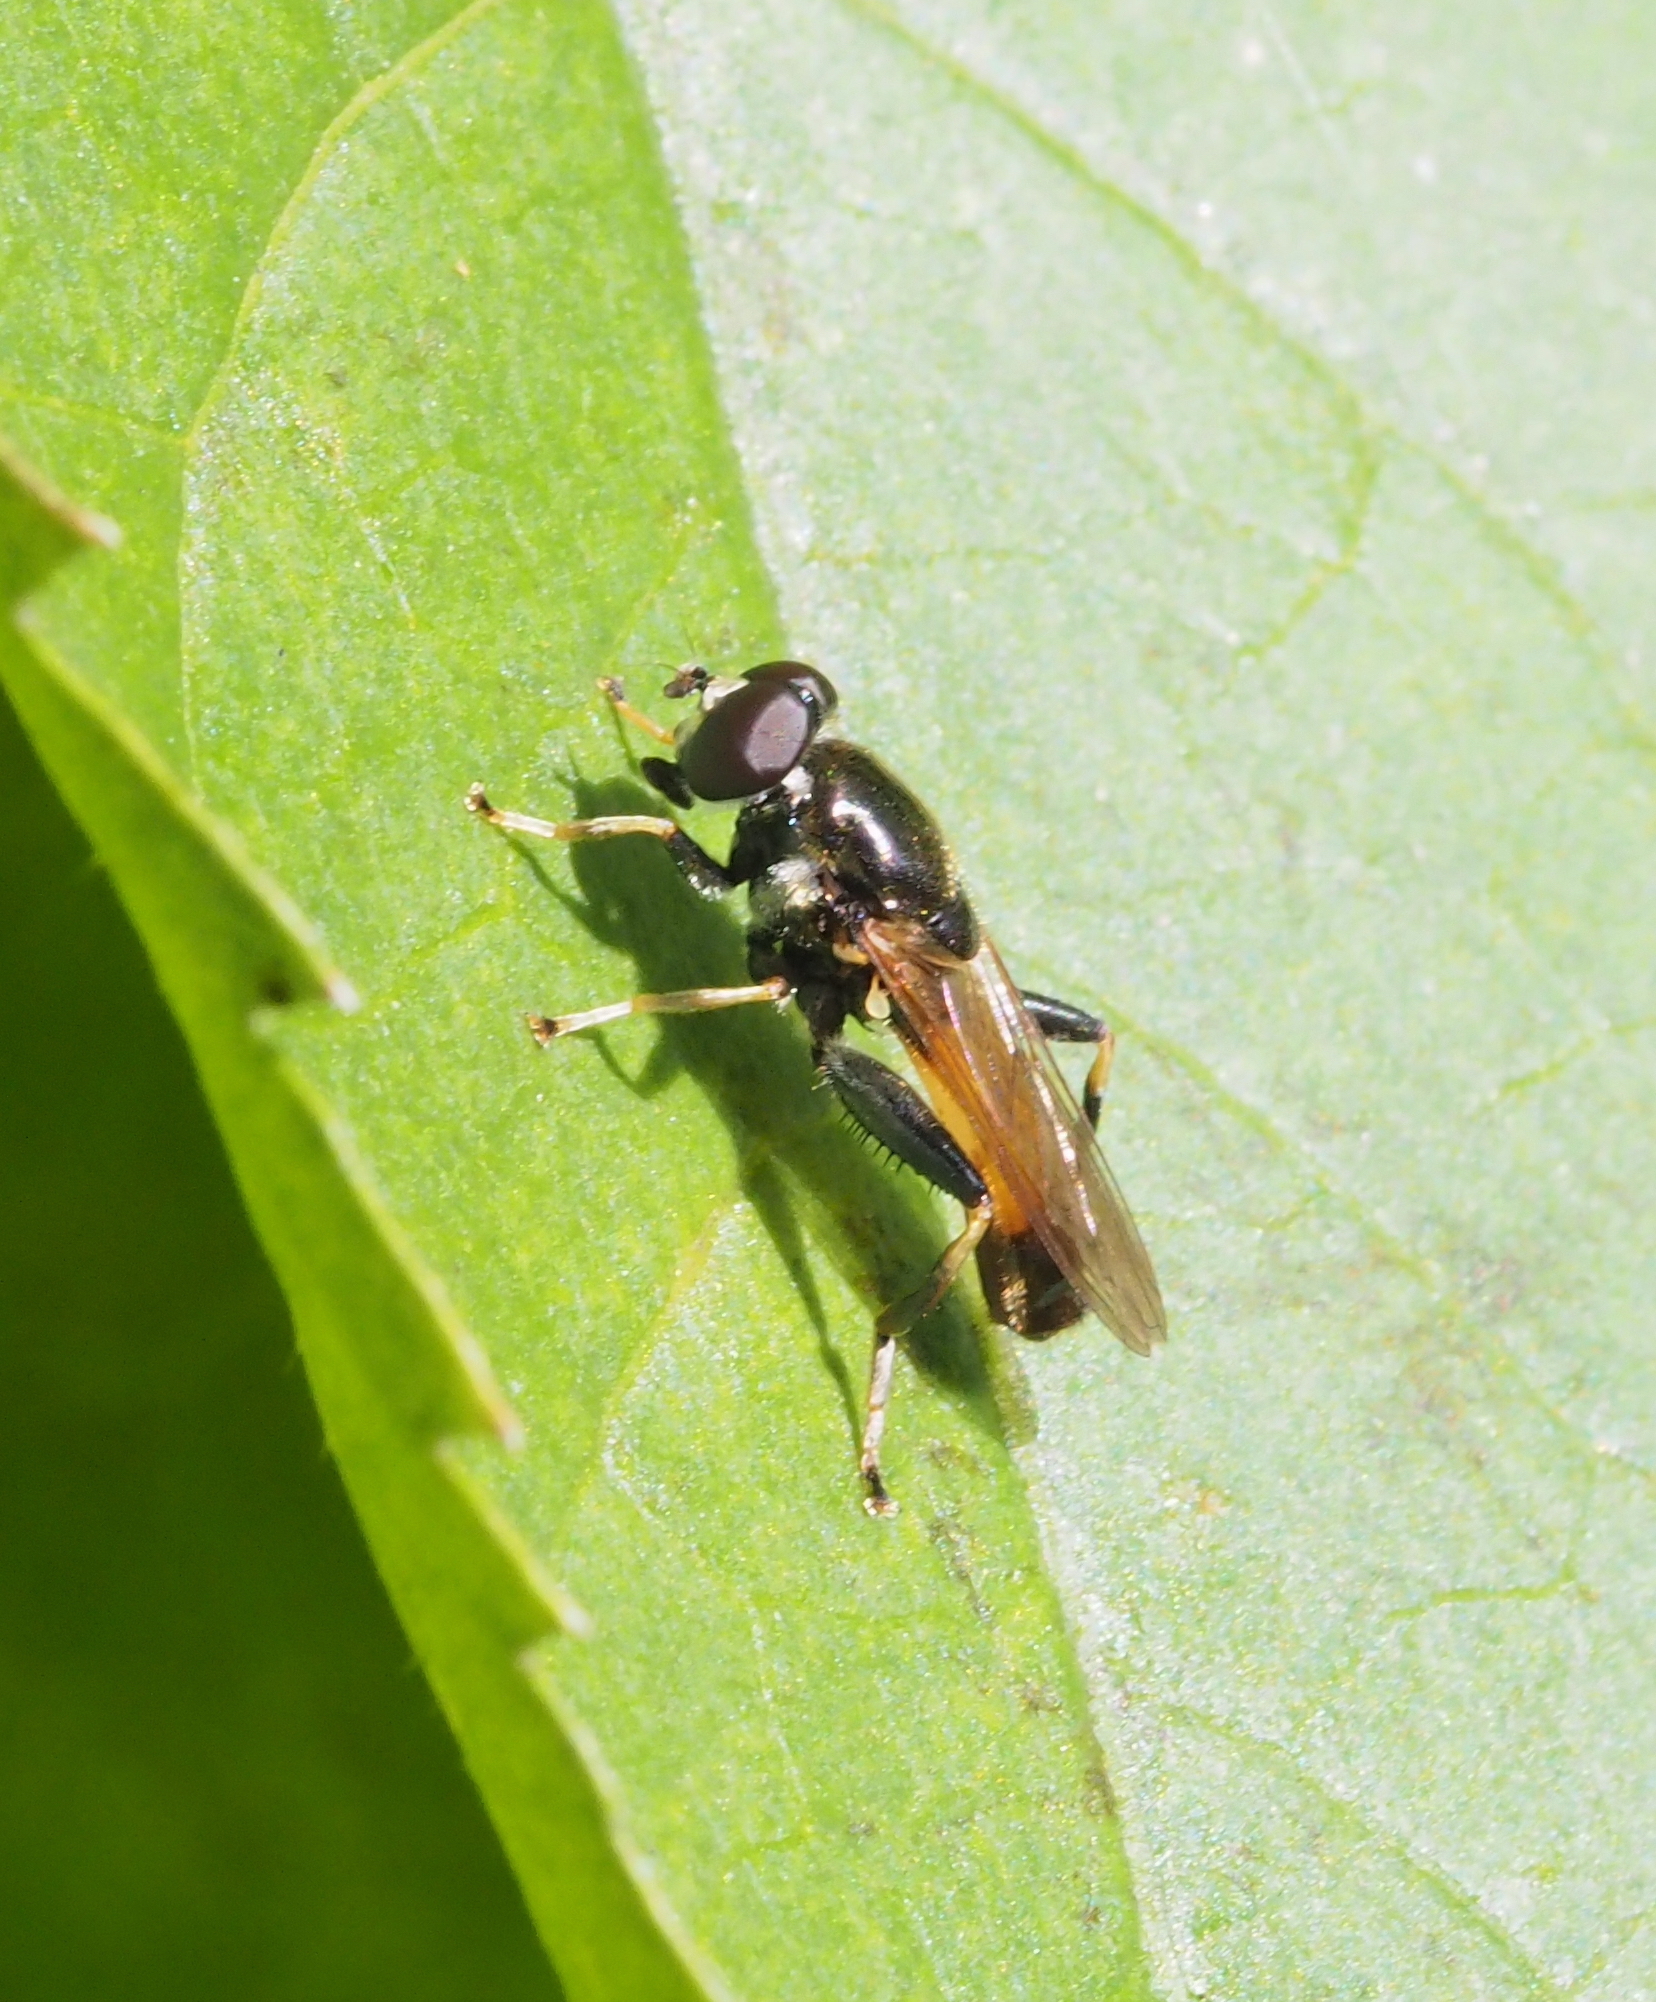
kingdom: Animalia
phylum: Arthropoda
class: Insecta
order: Diptera
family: Syrphidae
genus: Xylota
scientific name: Xylota segnis
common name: Brown-toed forest fly
